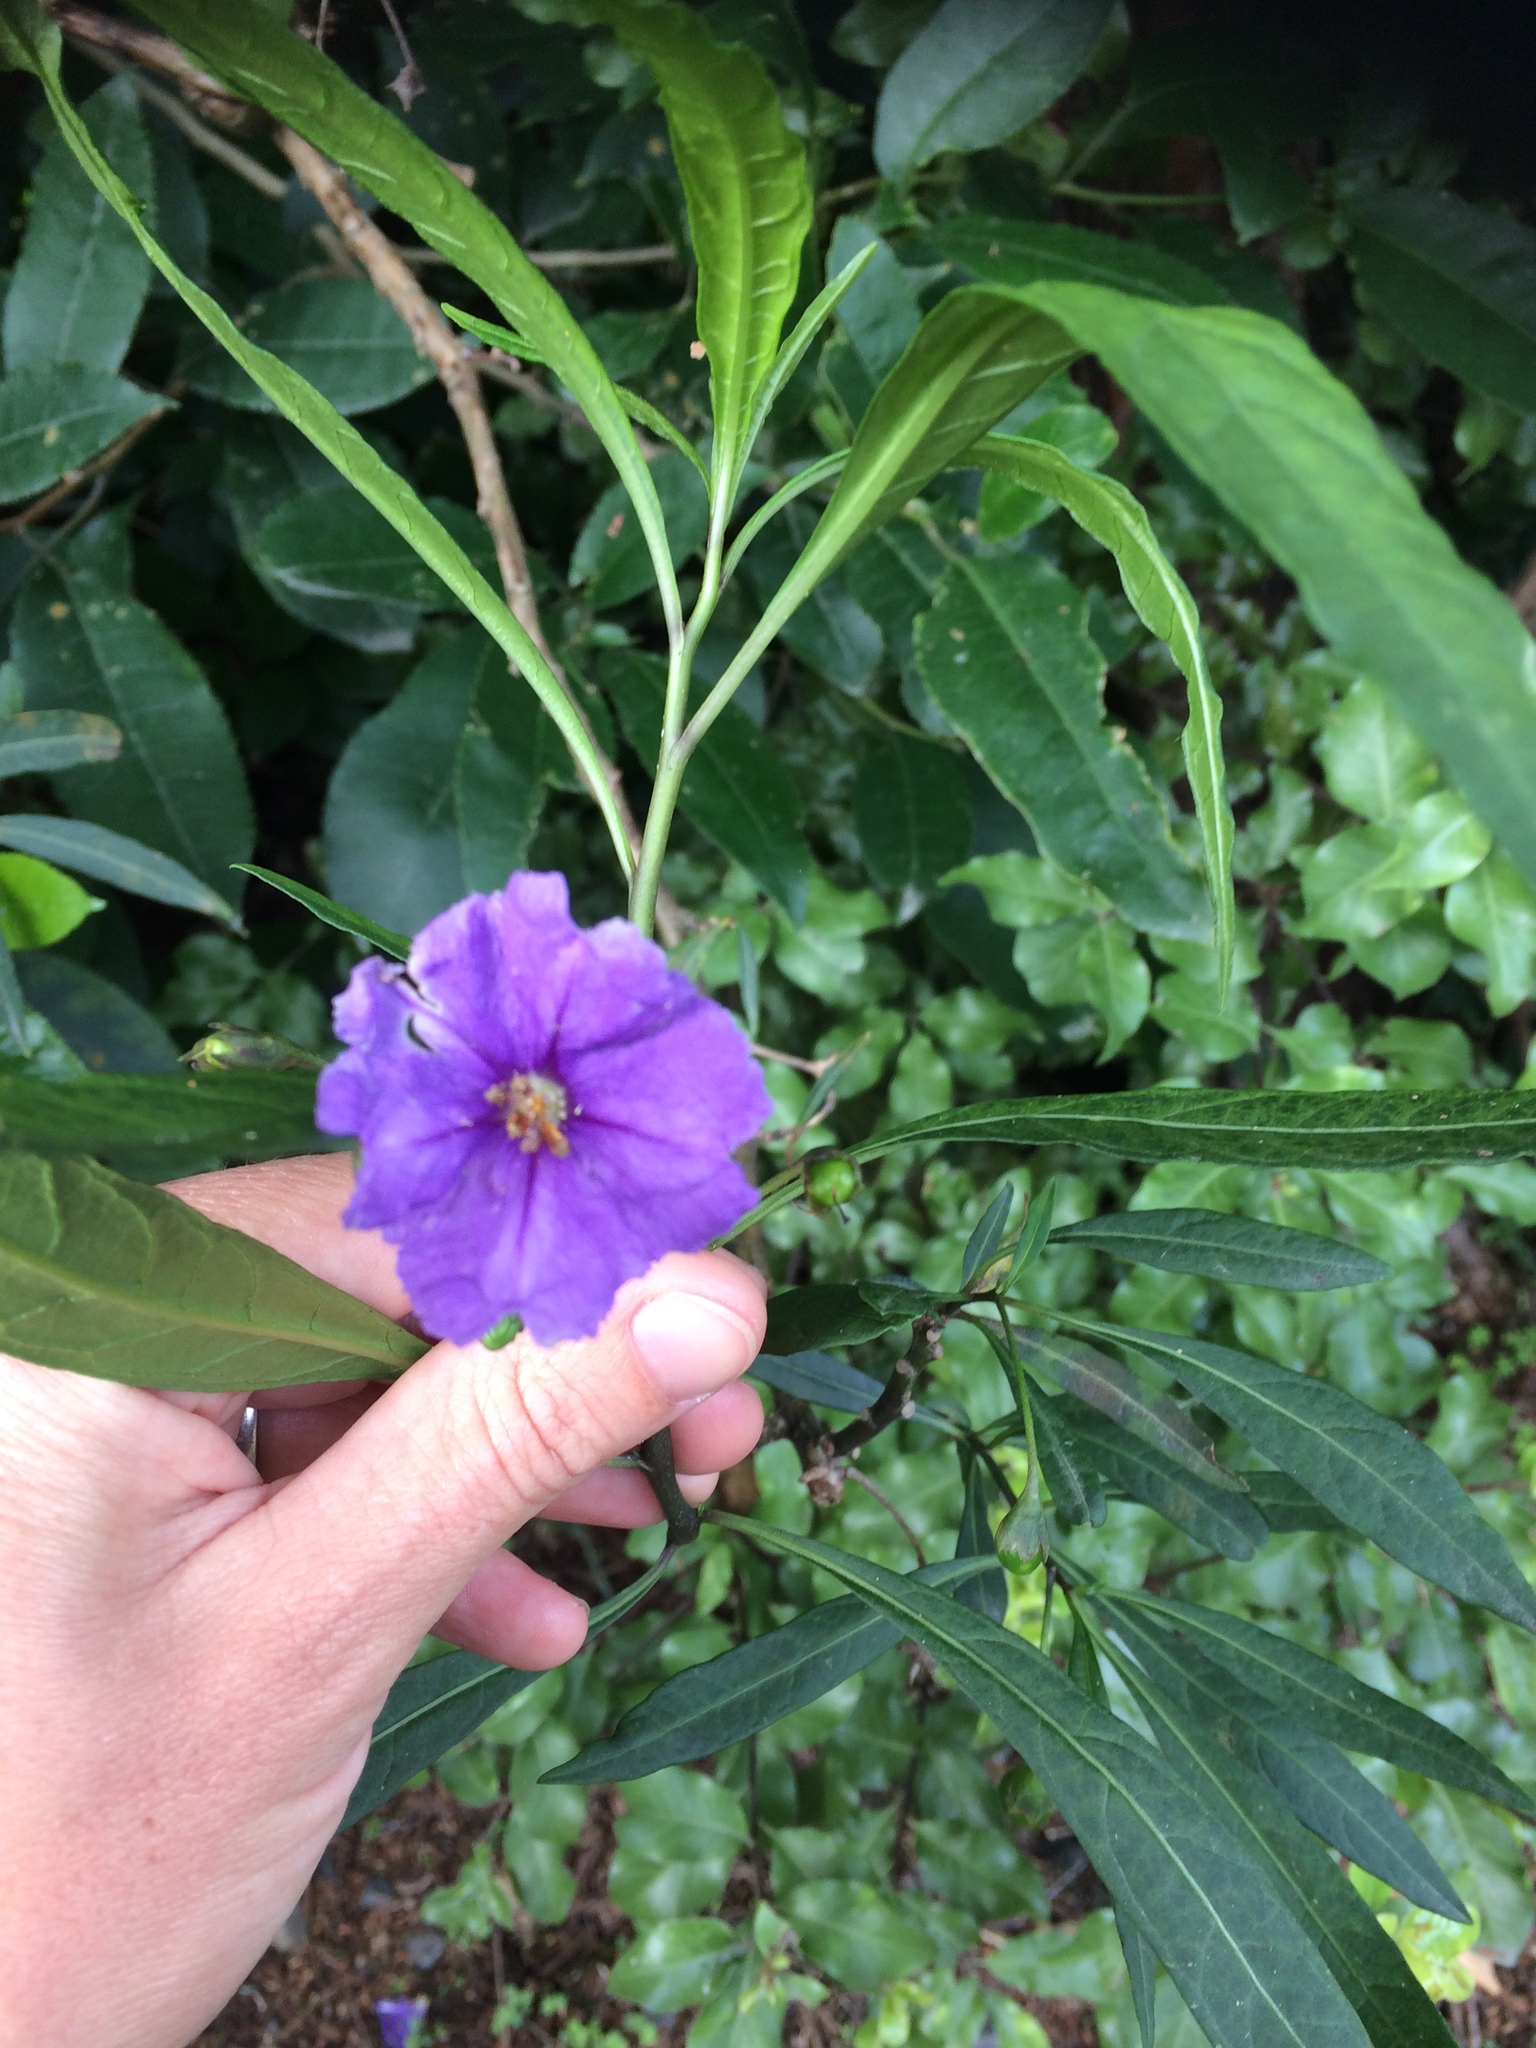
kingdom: Plantae
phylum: Tracheophyta
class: Magnoliopsida
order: Solanales
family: Solanaceae
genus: Solanum
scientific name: Solanum laciniatum
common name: Kangaroo-apple
